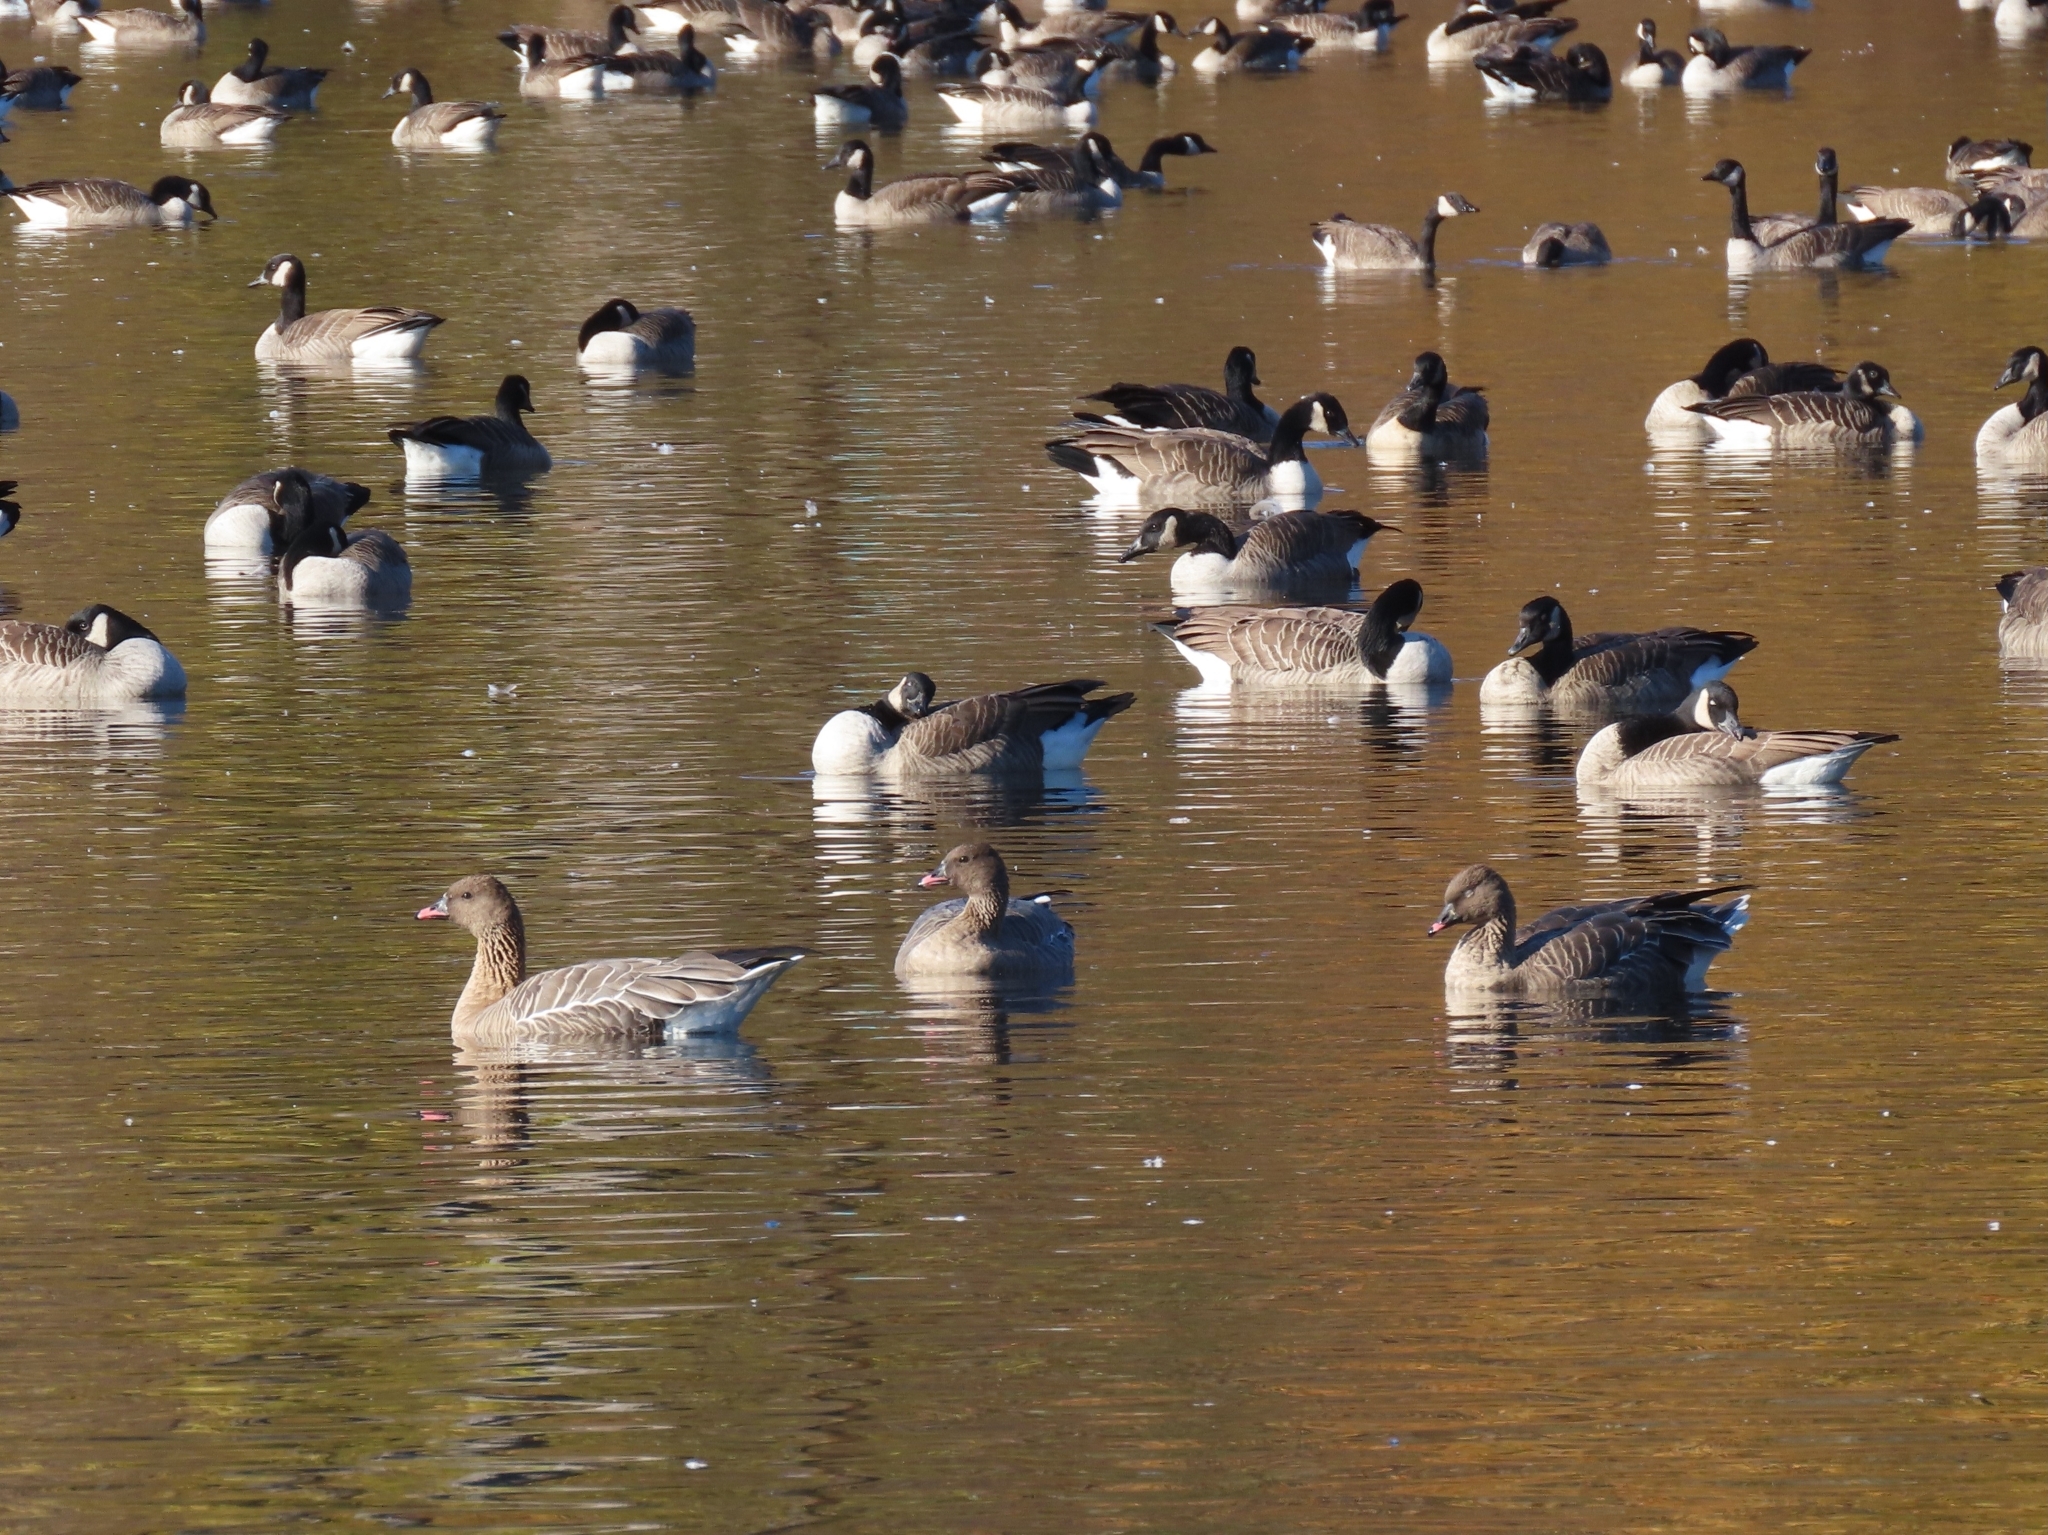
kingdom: Animalia
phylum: Chordata
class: Aves
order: Anseriformes
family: Anatidae
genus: Anser
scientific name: Anser brachyrhynchus
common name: Pink-footed goose
